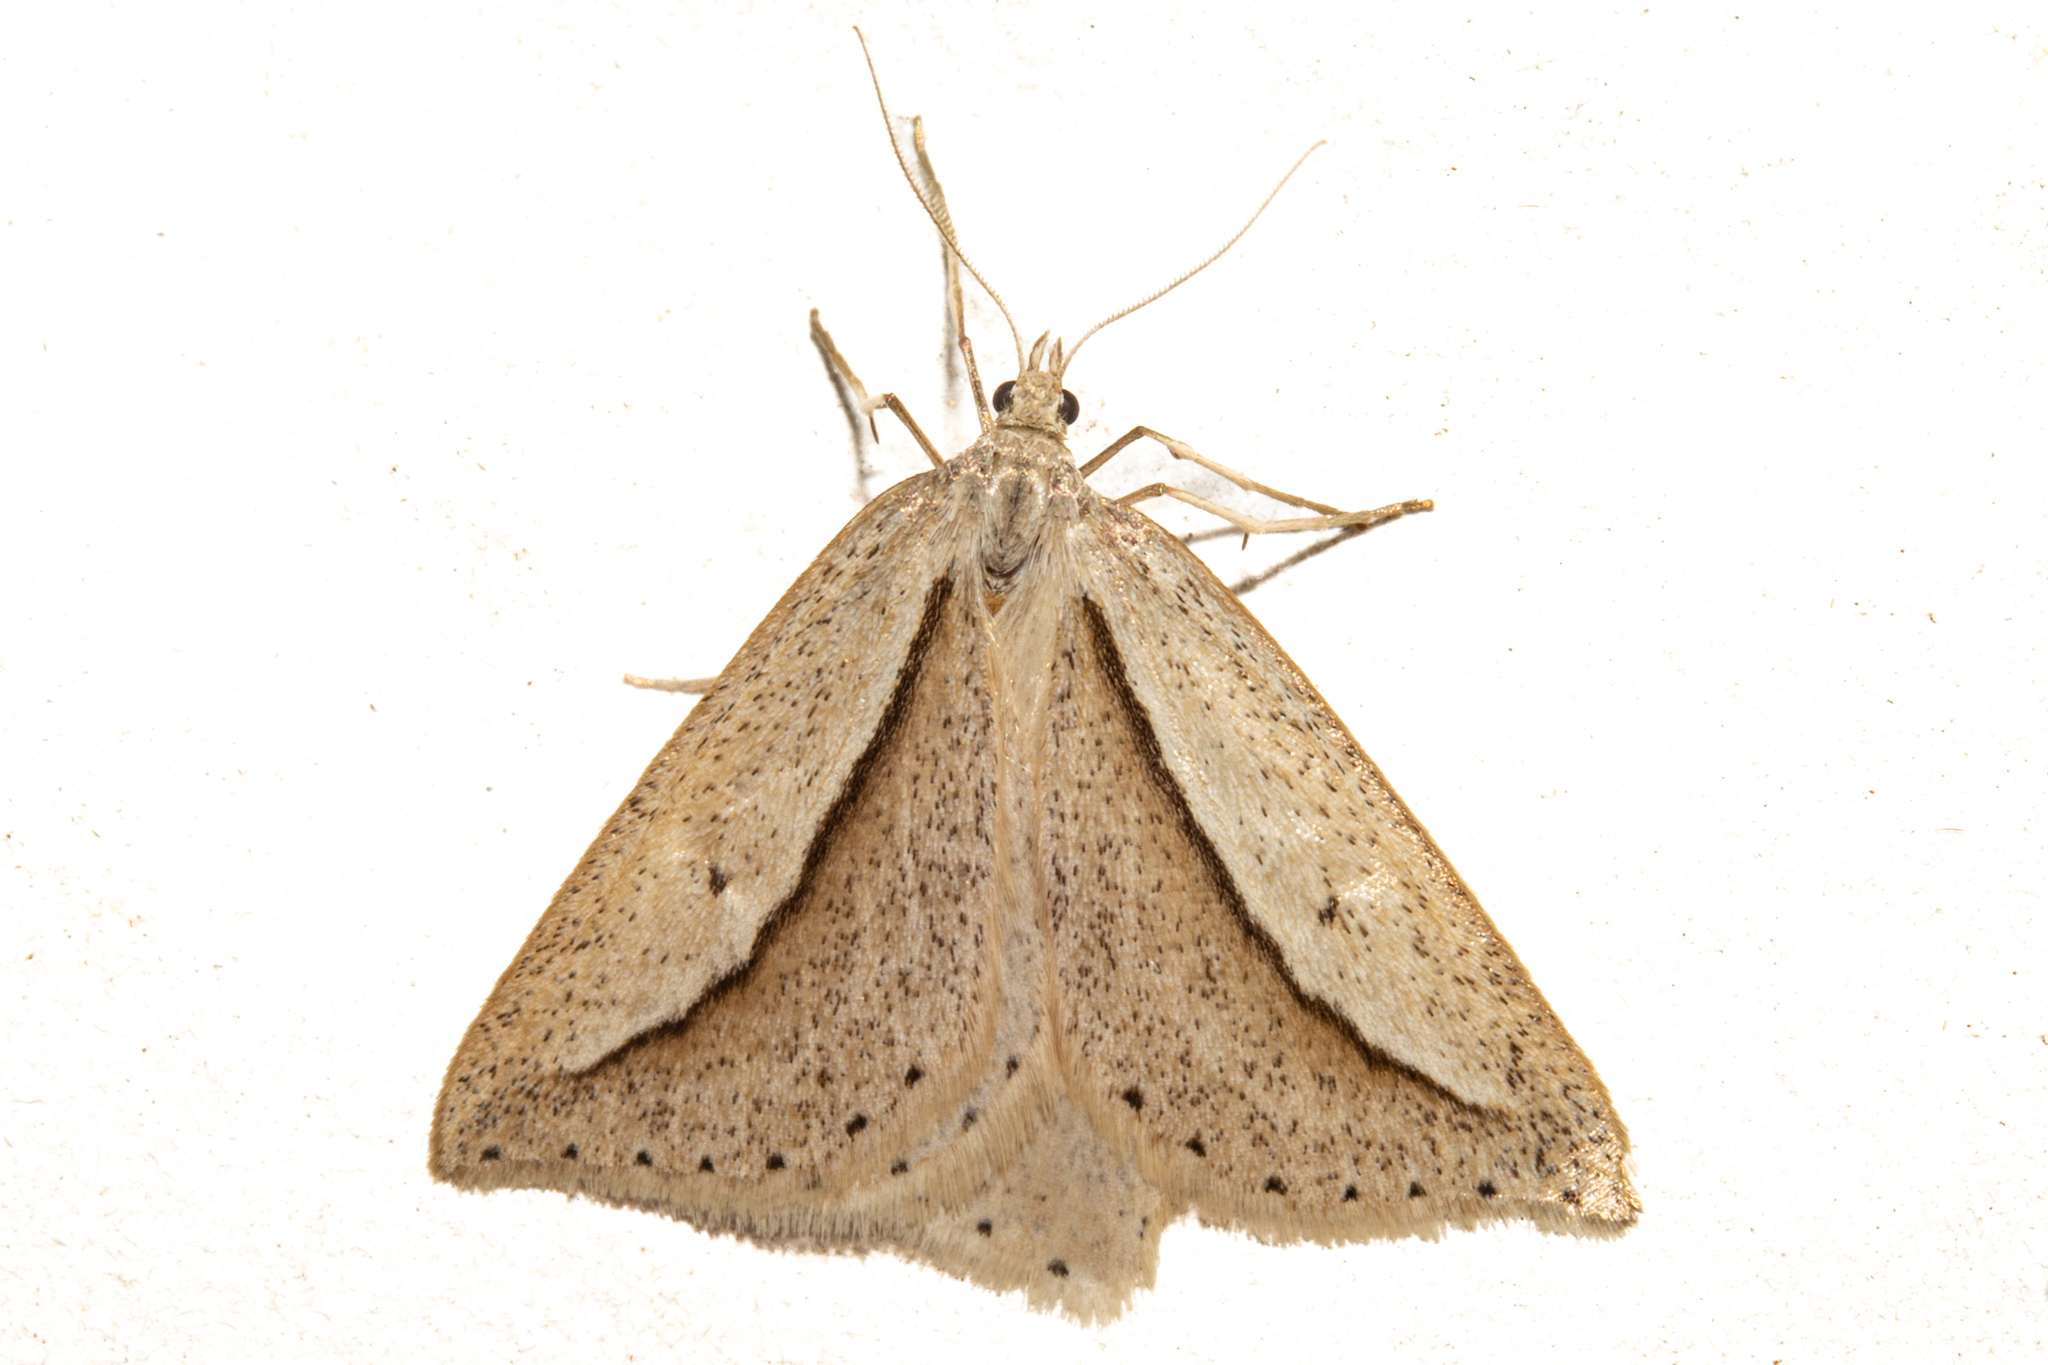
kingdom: Animalia
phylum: Arthropoda
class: Insecta
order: Lepidoptera
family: Geometridae
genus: Theoxena
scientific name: Theoxena scissaria
